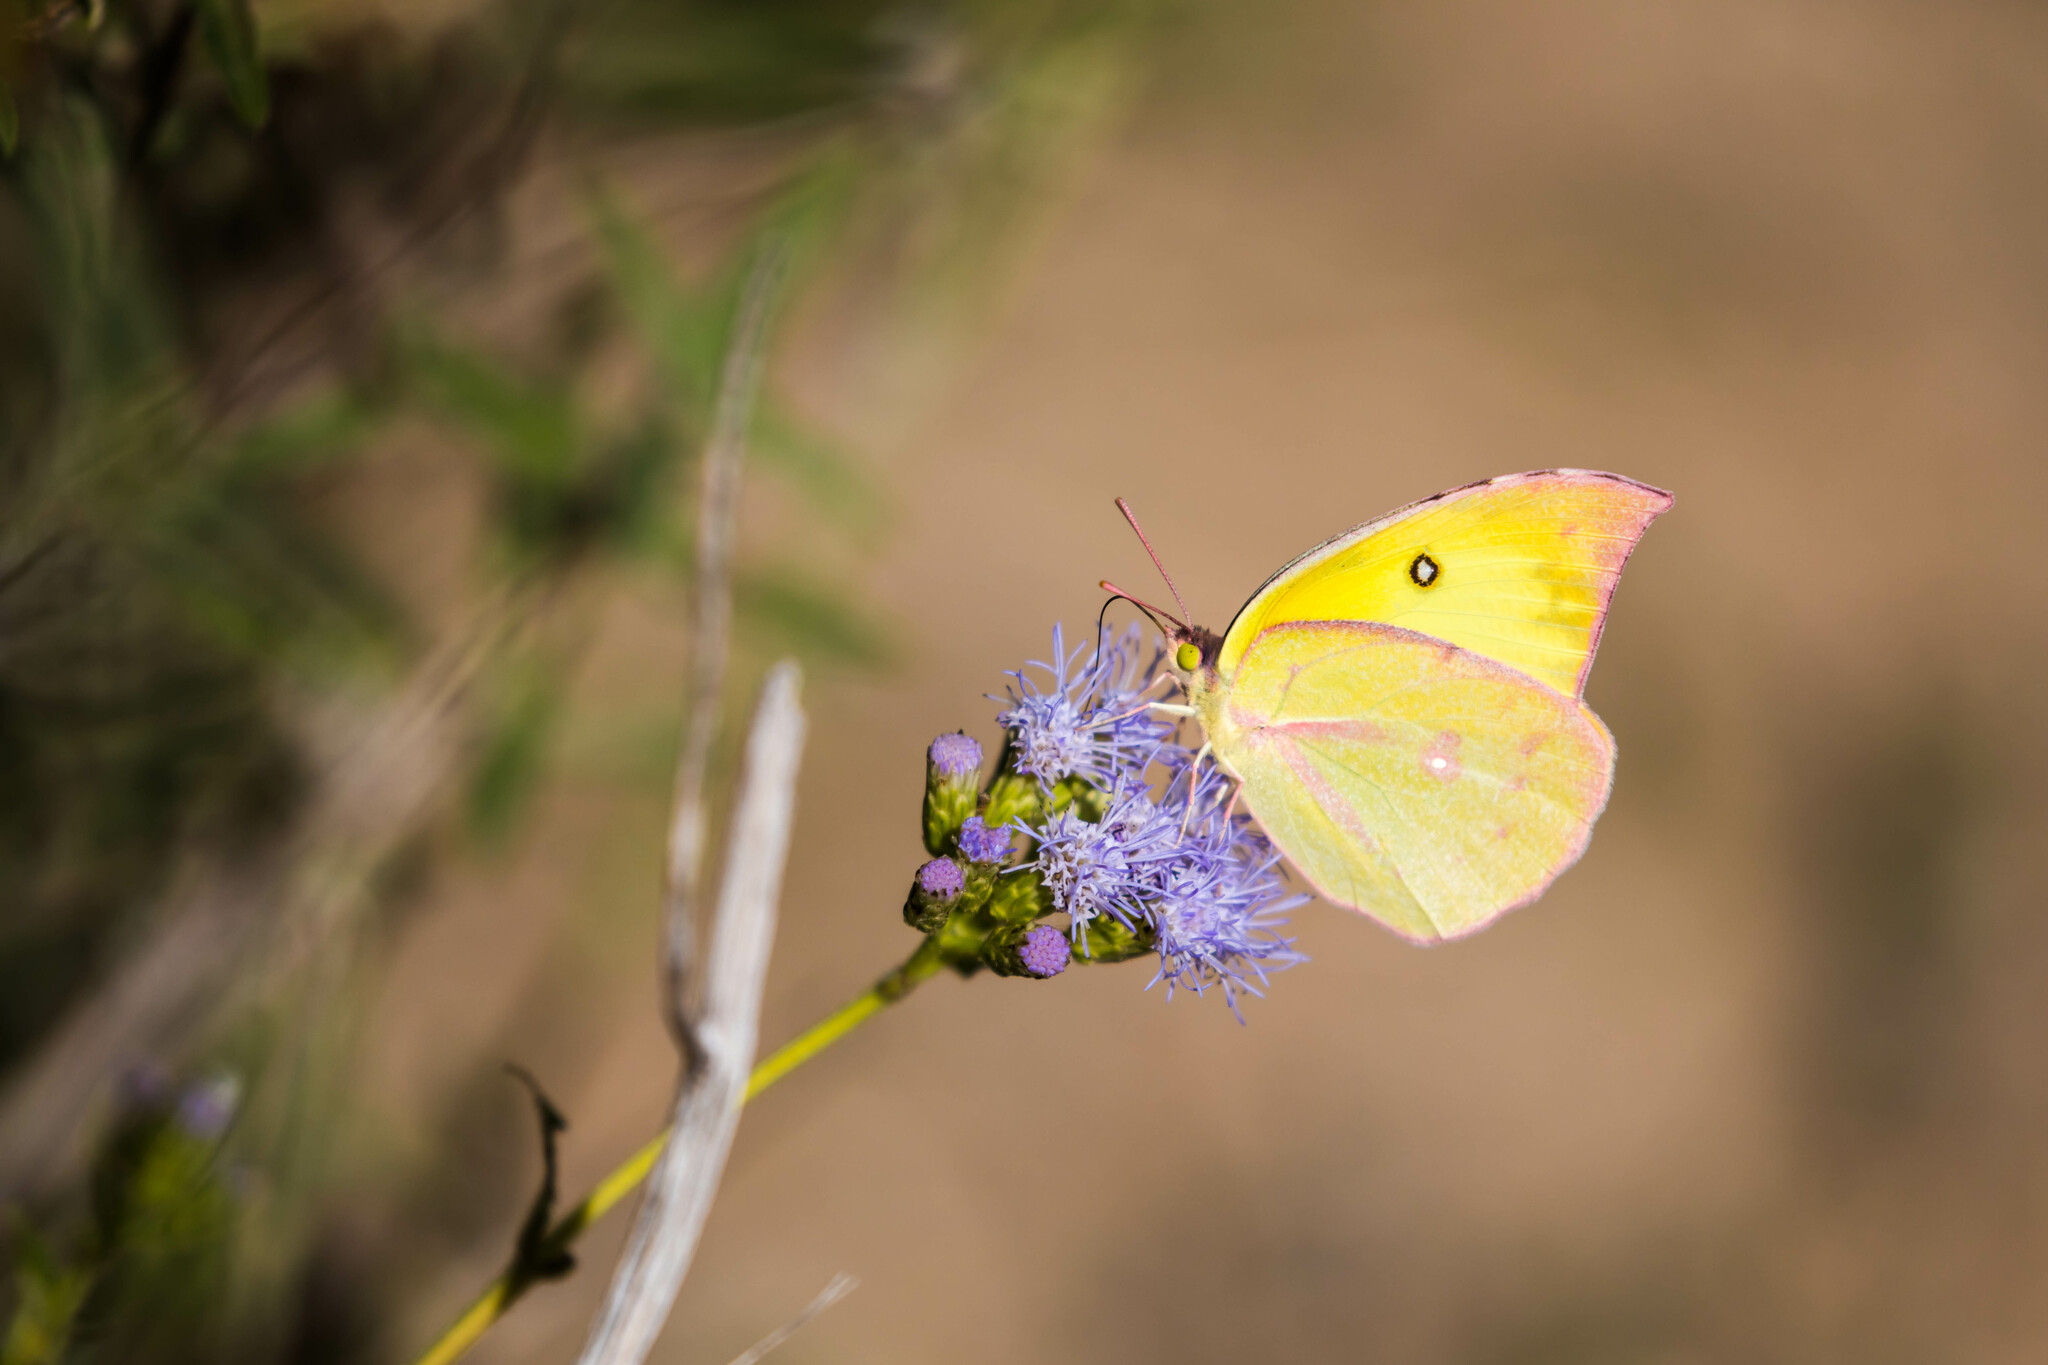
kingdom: Animalia
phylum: Arthropoda
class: Insecta
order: Lepidoptera
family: Pieridae
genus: Zerene
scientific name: Zerene cesonia
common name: Southern dogface
